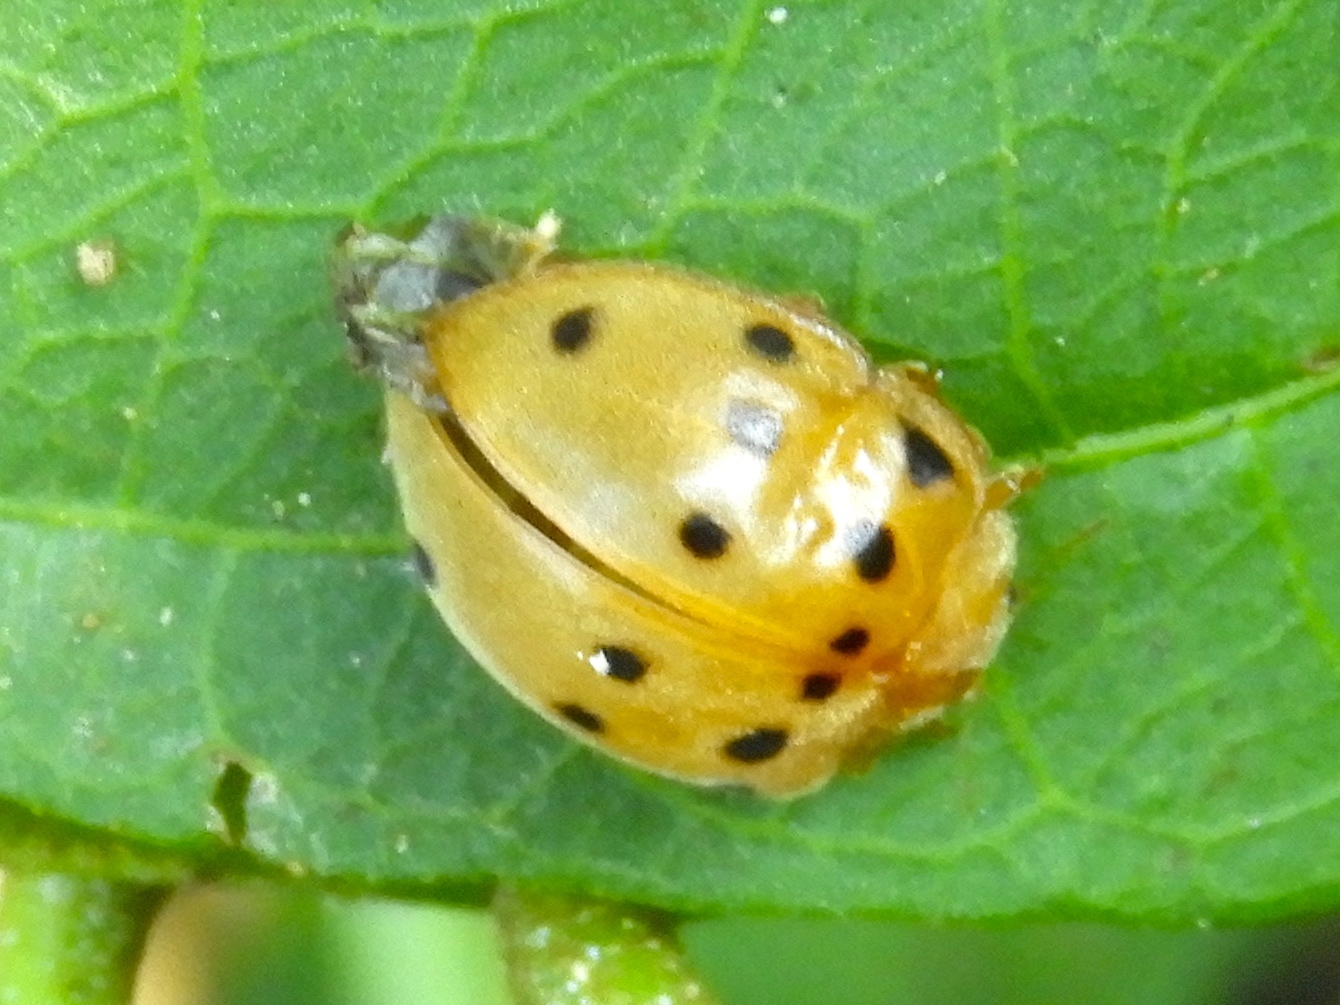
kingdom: Animalia
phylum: Arthropoda
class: Insecta
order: Coleoptera
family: Coccinellidae
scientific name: Coccinellidae
